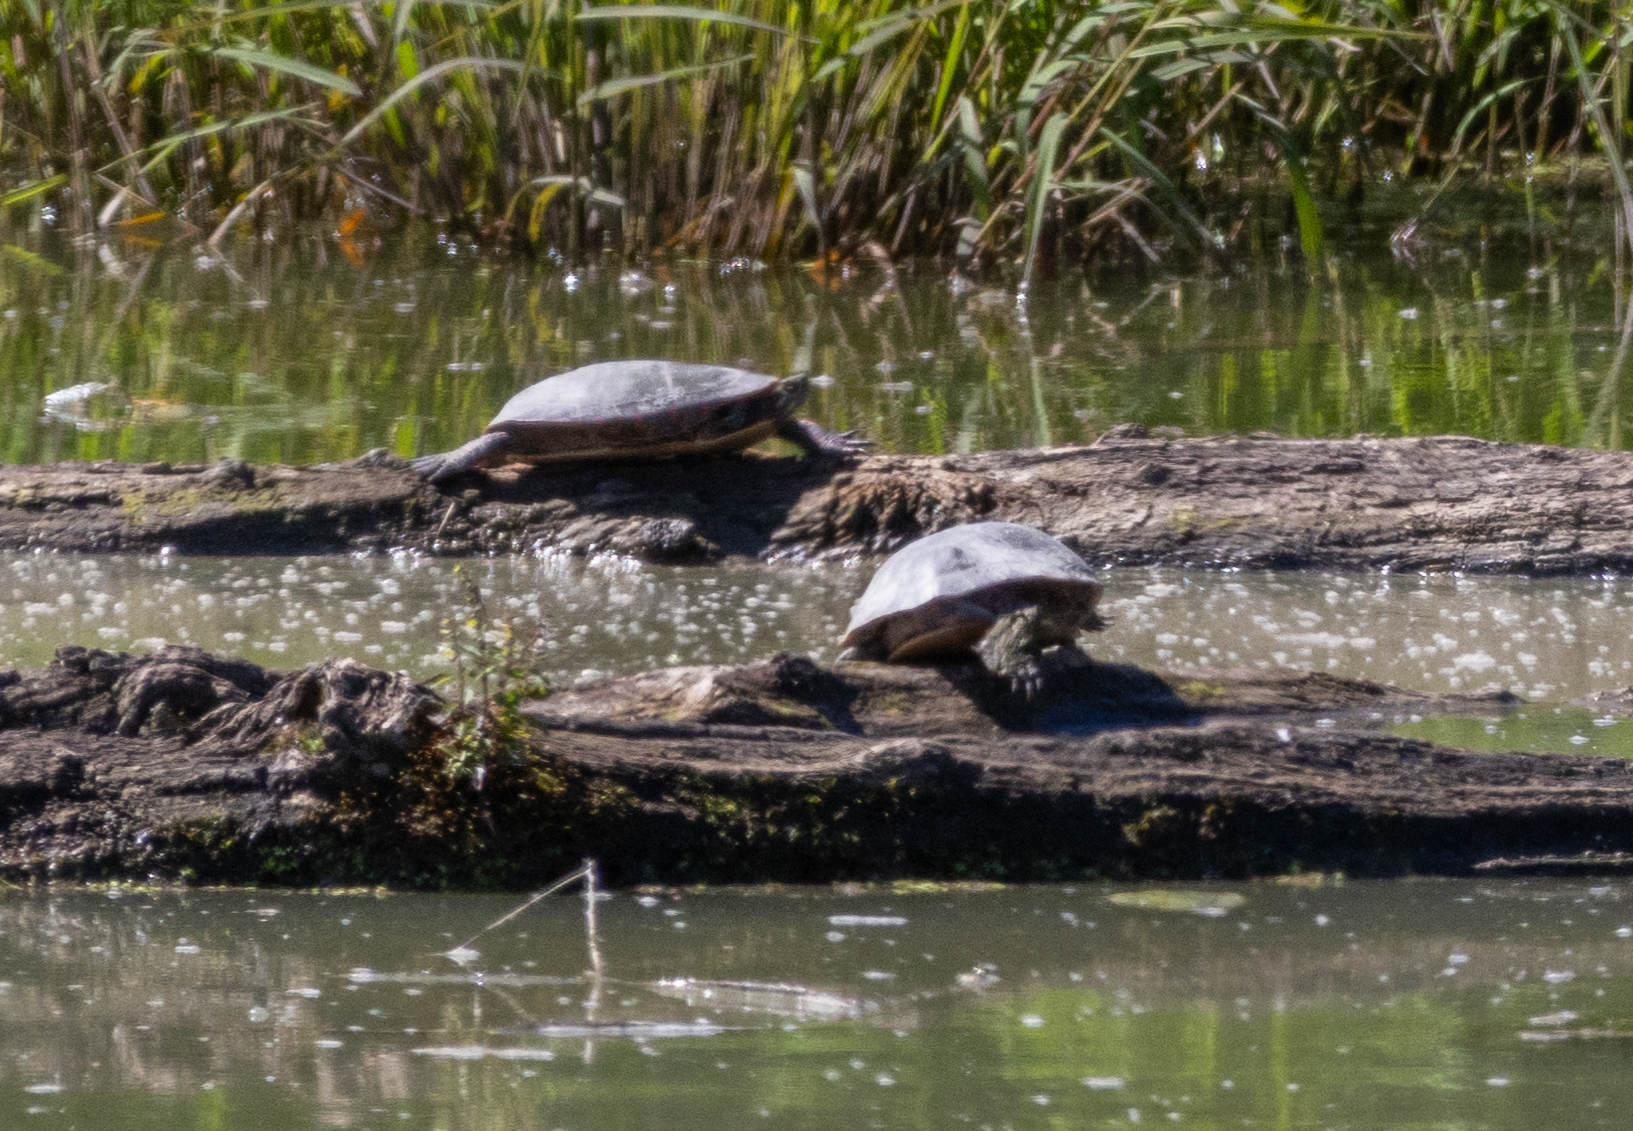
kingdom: Animalia
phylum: Chordata
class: Testudines
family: Emydidae
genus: Chrysemys
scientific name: Chrysemys picta
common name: Painted turtle
